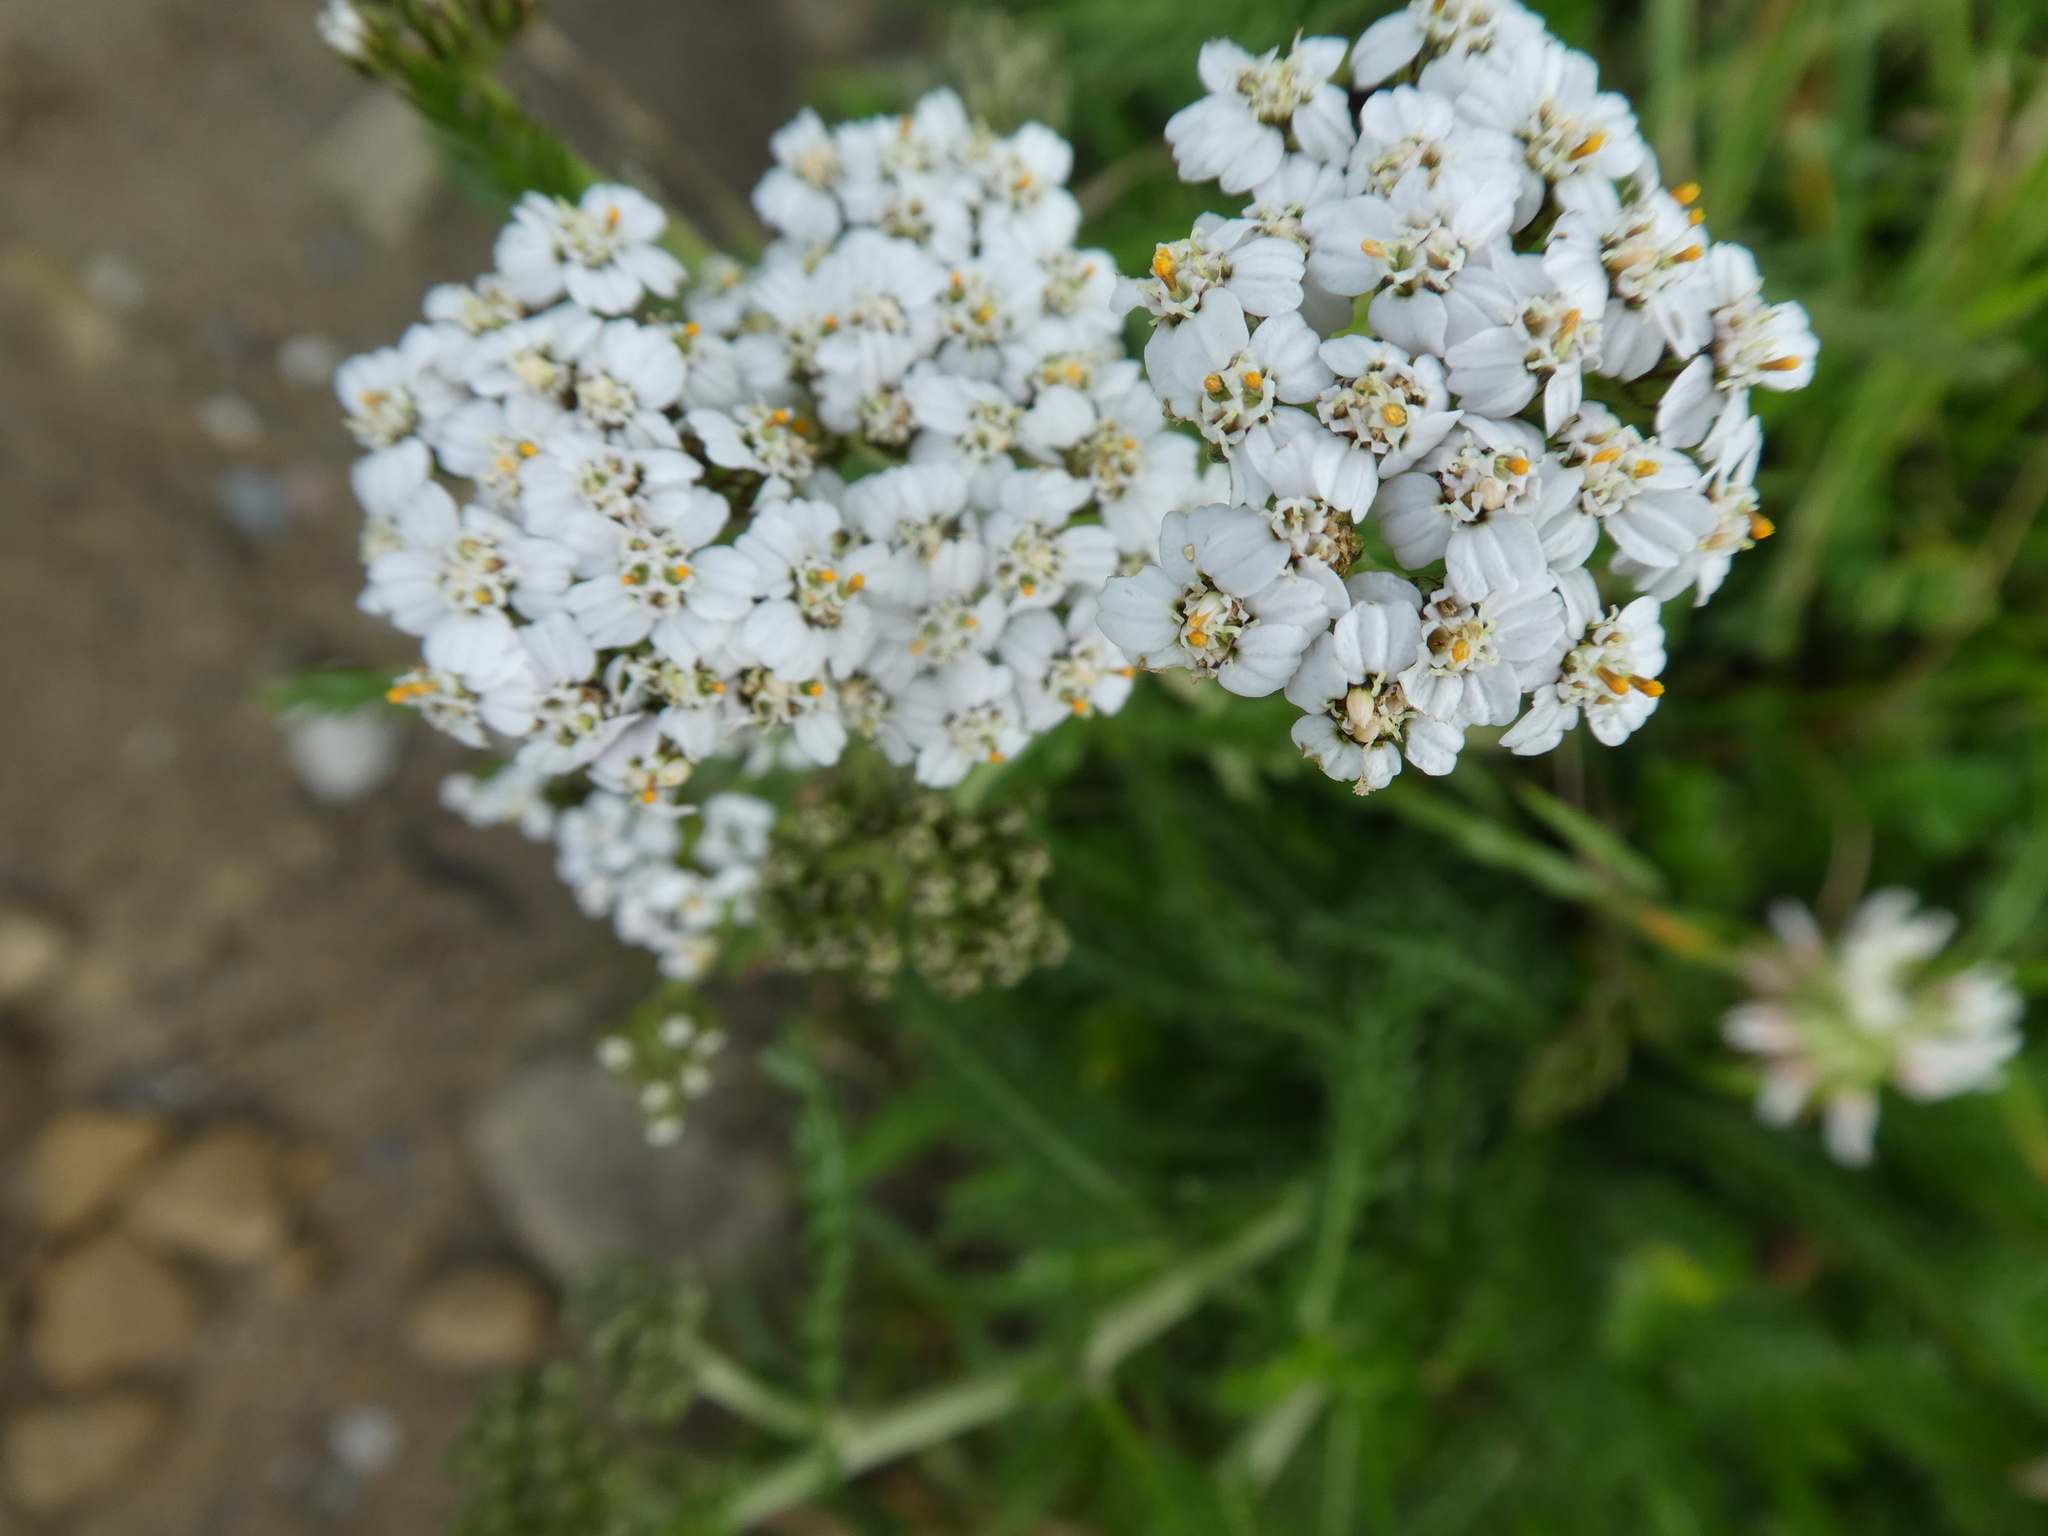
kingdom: Plantae
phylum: Tracheophyta
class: Magnoliopsida
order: Asterales
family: Asteraceae
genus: Achillea
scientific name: Achillea millefolium
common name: Yarrow
